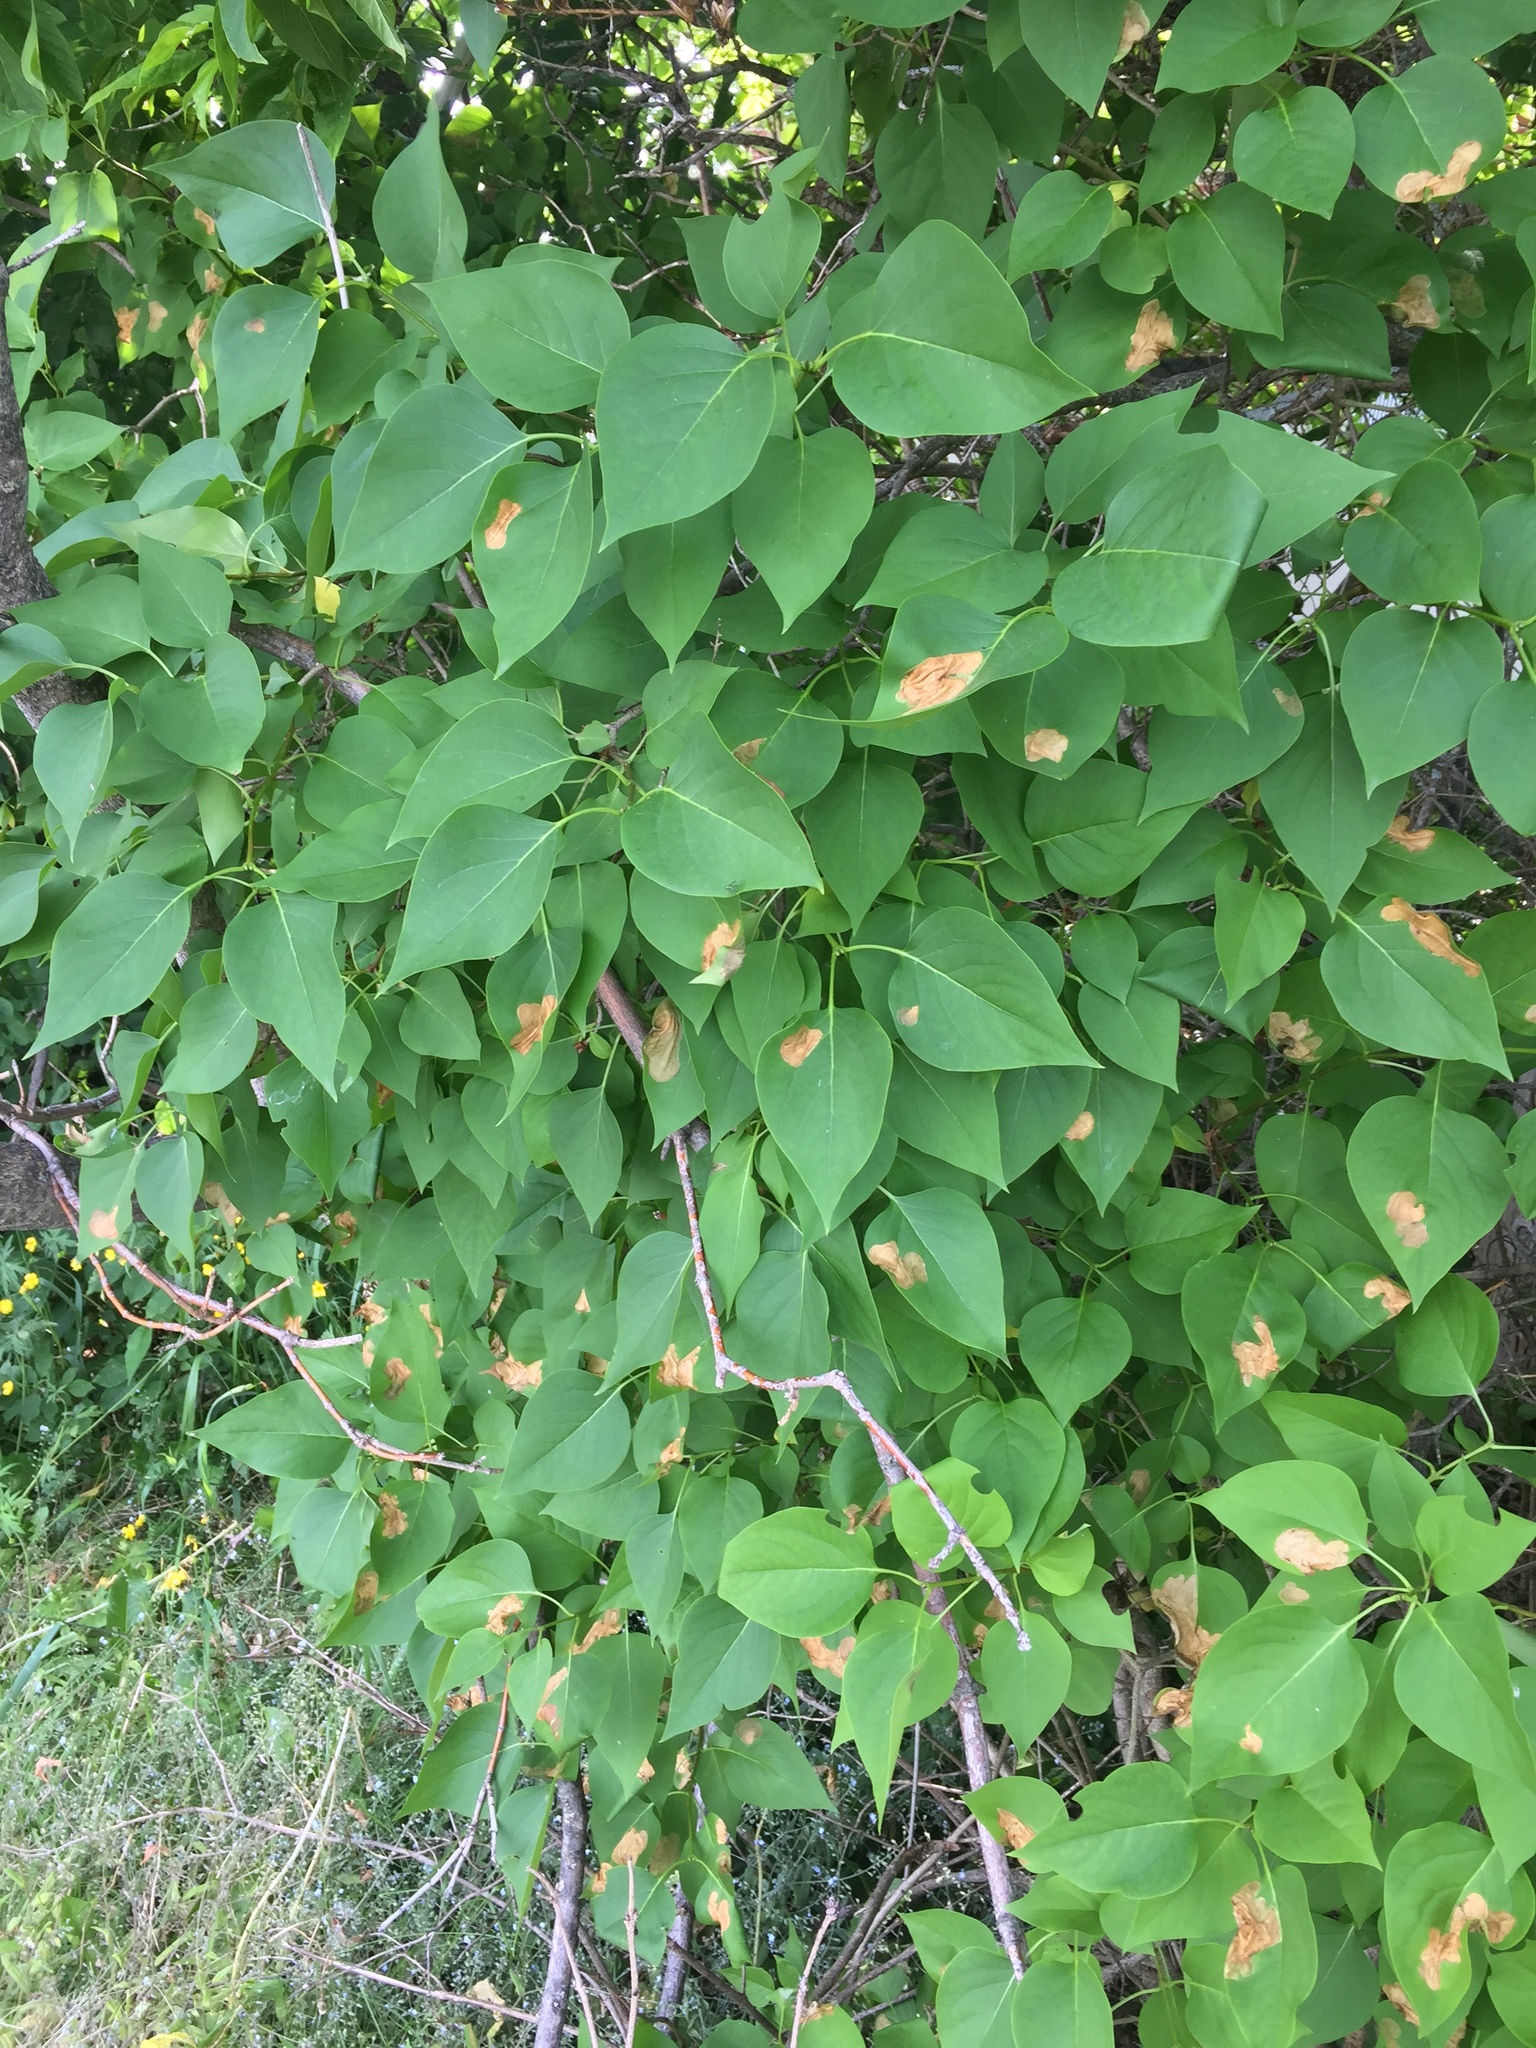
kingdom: Animalia
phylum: Arthropoda
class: Insecta
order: Lepidoptera
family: Gracillariidae
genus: Gracillaria
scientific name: Gracillaria syringella
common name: Common slender
